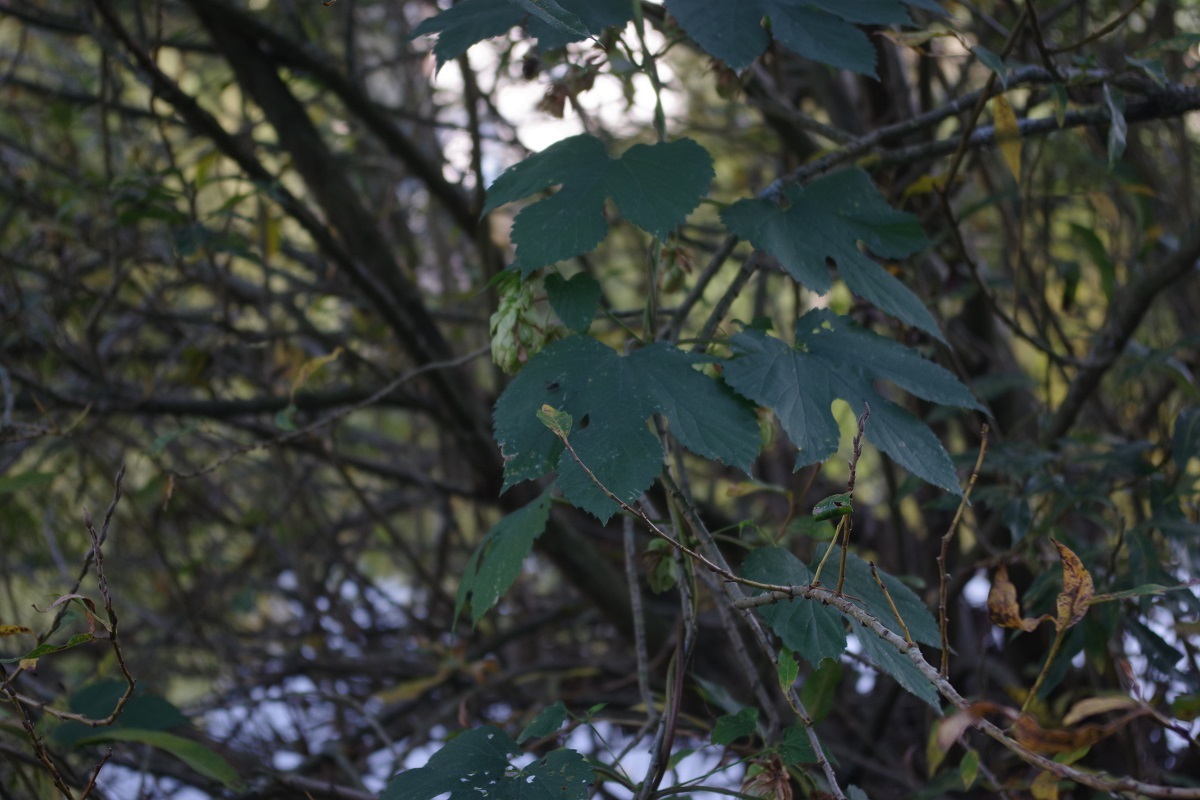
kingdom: Plantae
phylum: Tracheophyta
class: Magnoliopsida
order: Rosales
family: Cannabaceae
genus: Humulus
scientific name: Humulus lupulus
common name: Hop
